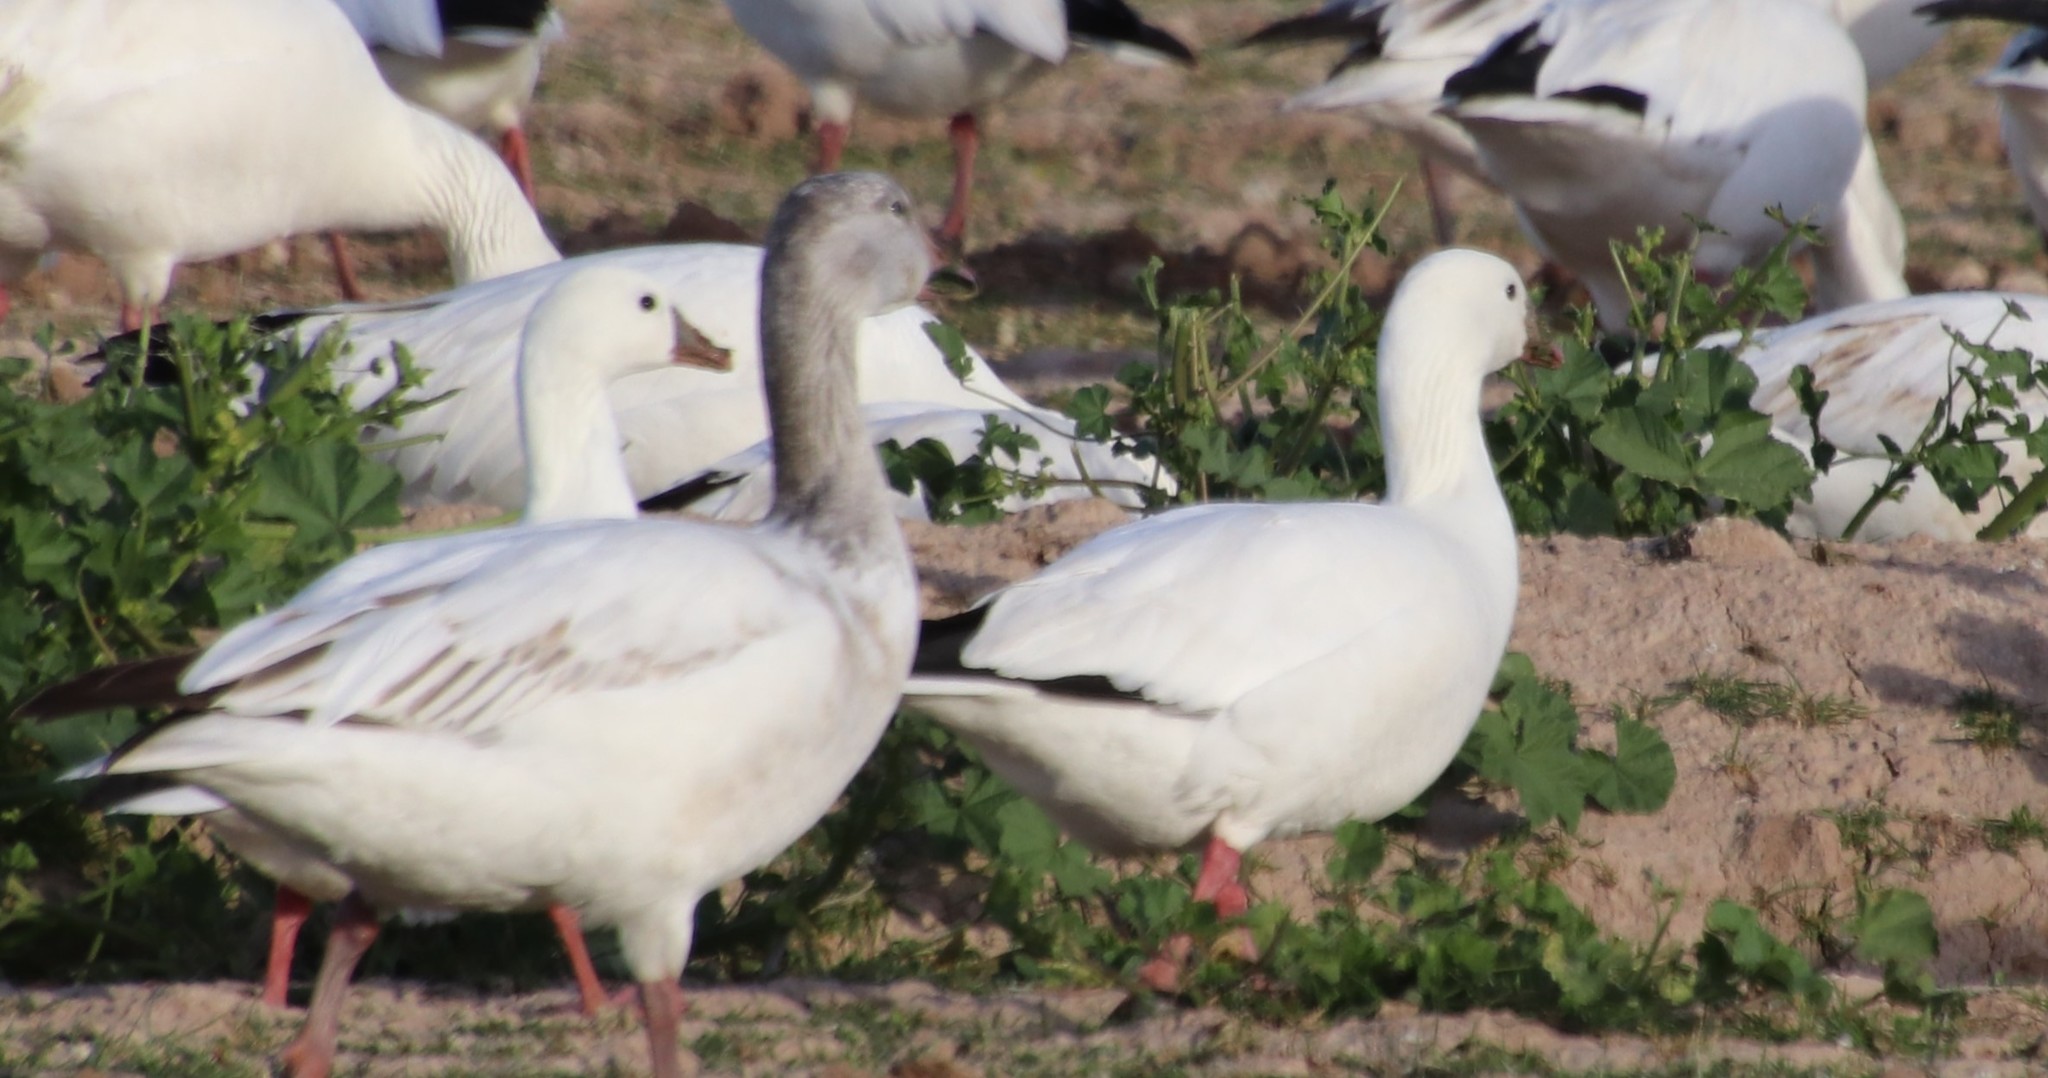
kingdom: Animalia
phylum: Chordata
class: Aves
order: Anseriformes
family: Anatidae
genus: Anser
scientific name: Anser rossii
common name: Ross's goose
